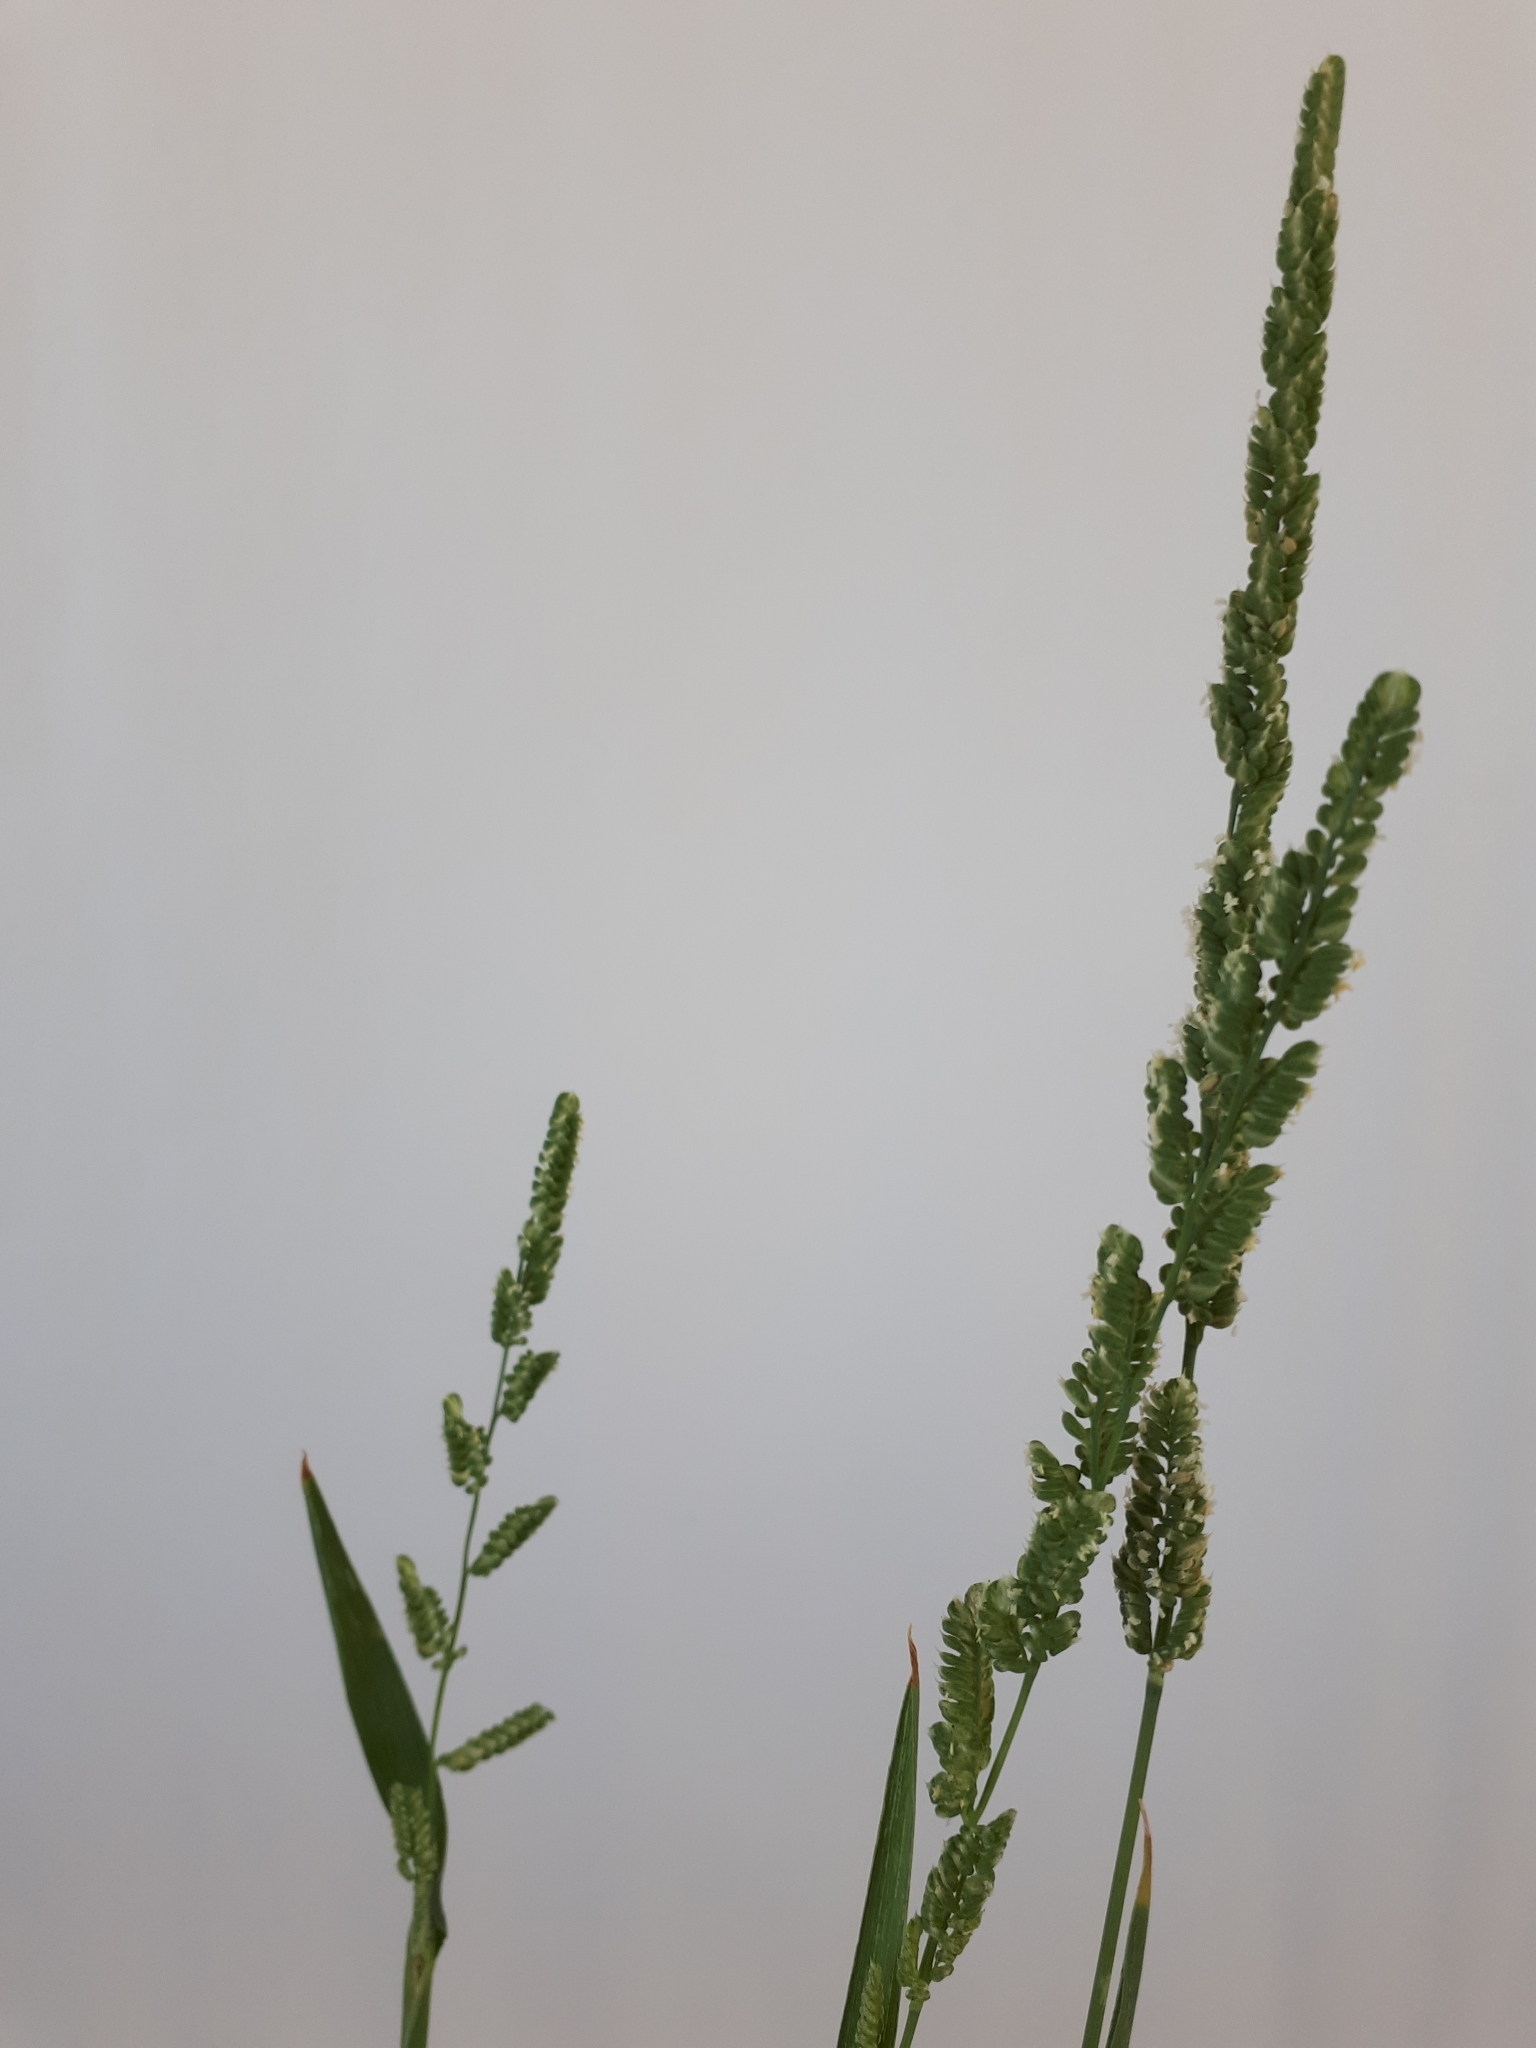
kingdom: Plantae
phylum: Tracheophyta
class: Liliopsida
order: Poales
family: Poaceae
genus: Beckmannia
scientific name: Beckmannia syzigachne
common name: American slough-grass
